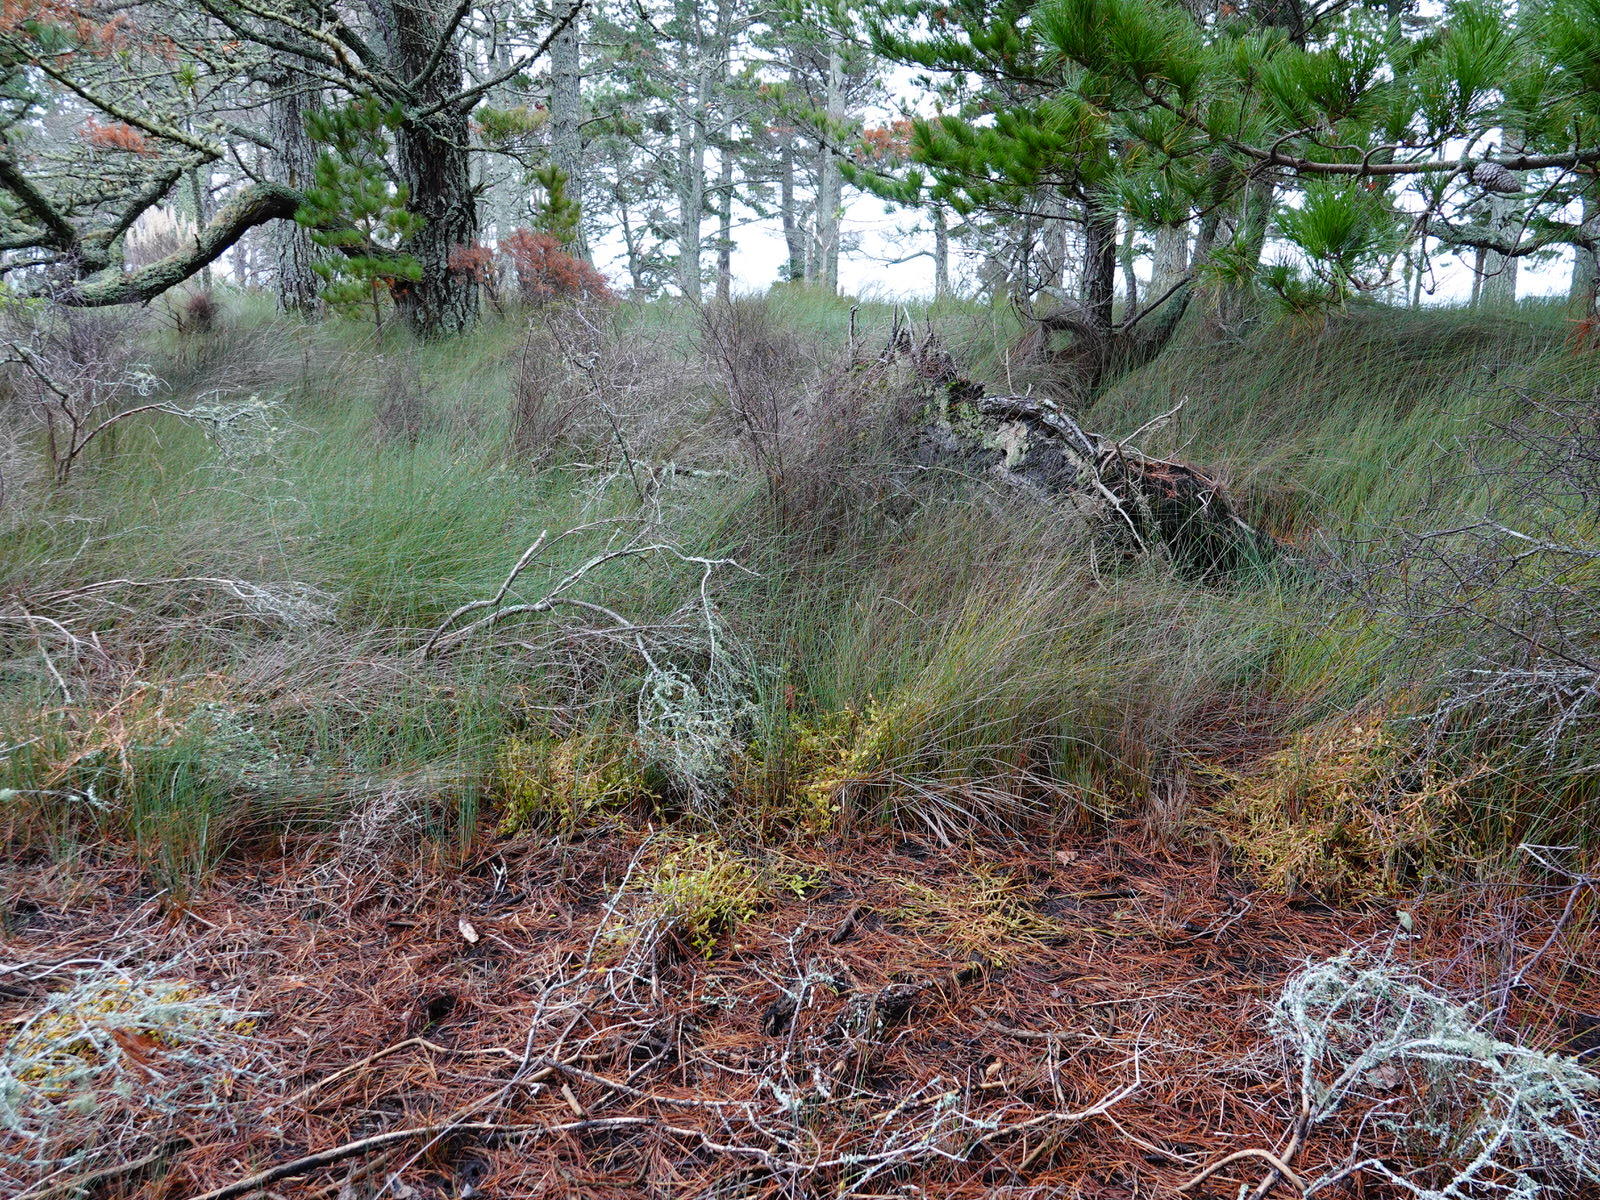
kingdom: Plantae
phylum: Tracheophyta
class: Magnoliopsida
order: Caryophyllales
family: Amaranthaceae
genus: Oxybasis
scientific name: Oxybasis ambigua
